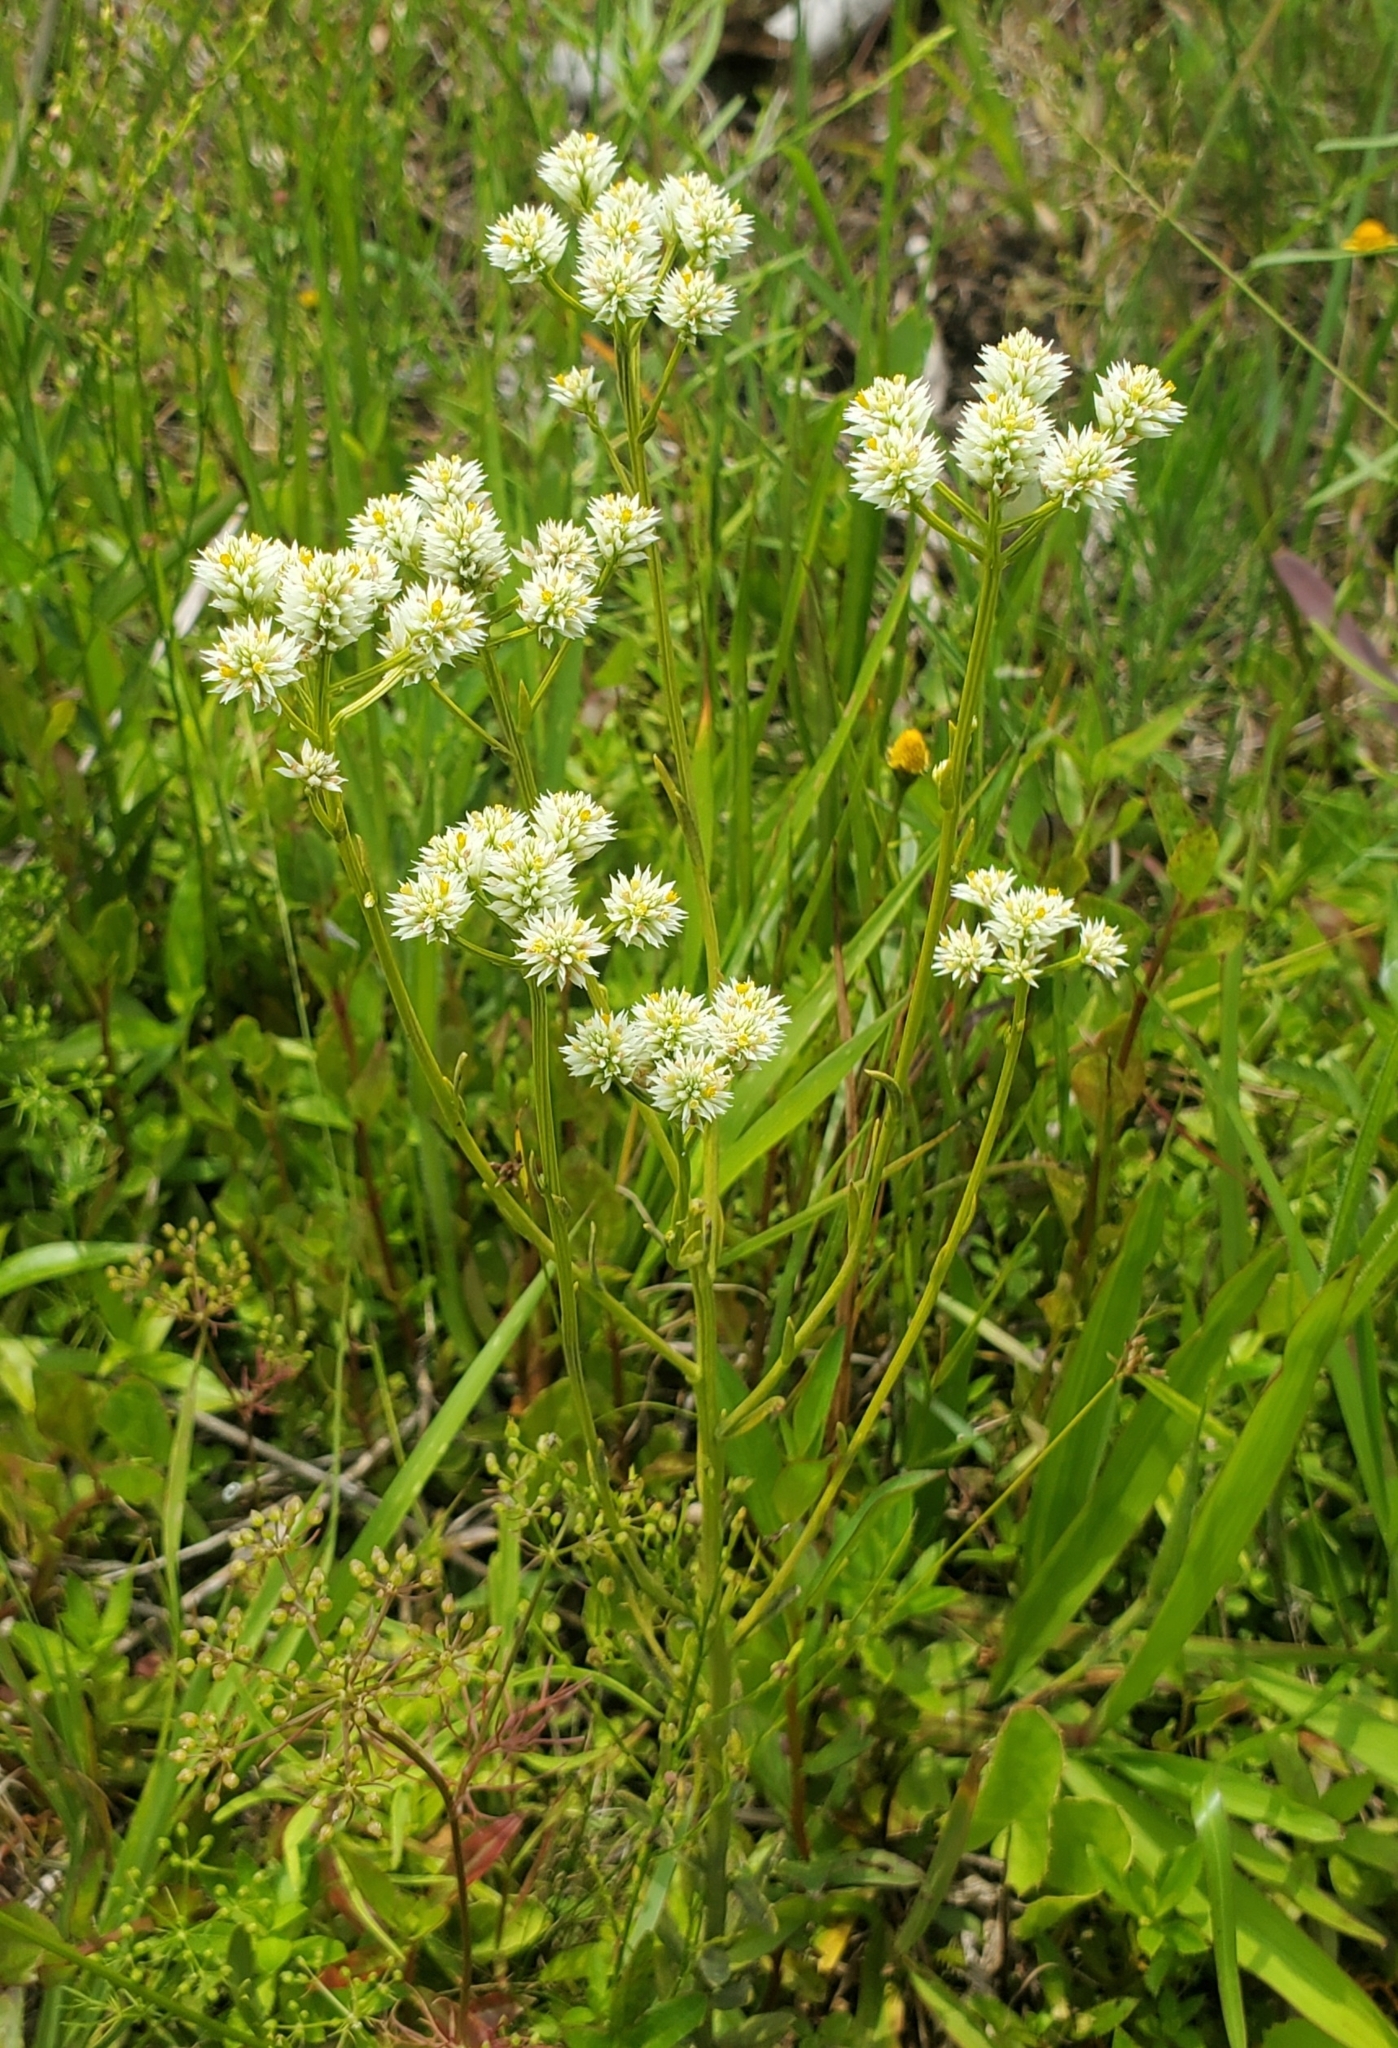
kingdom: Plantae
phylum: Tracheophyta
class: Magnoliopsida
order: Fabales
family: Polygalaceae
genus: Polygala
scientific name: Polygala baldwinii
